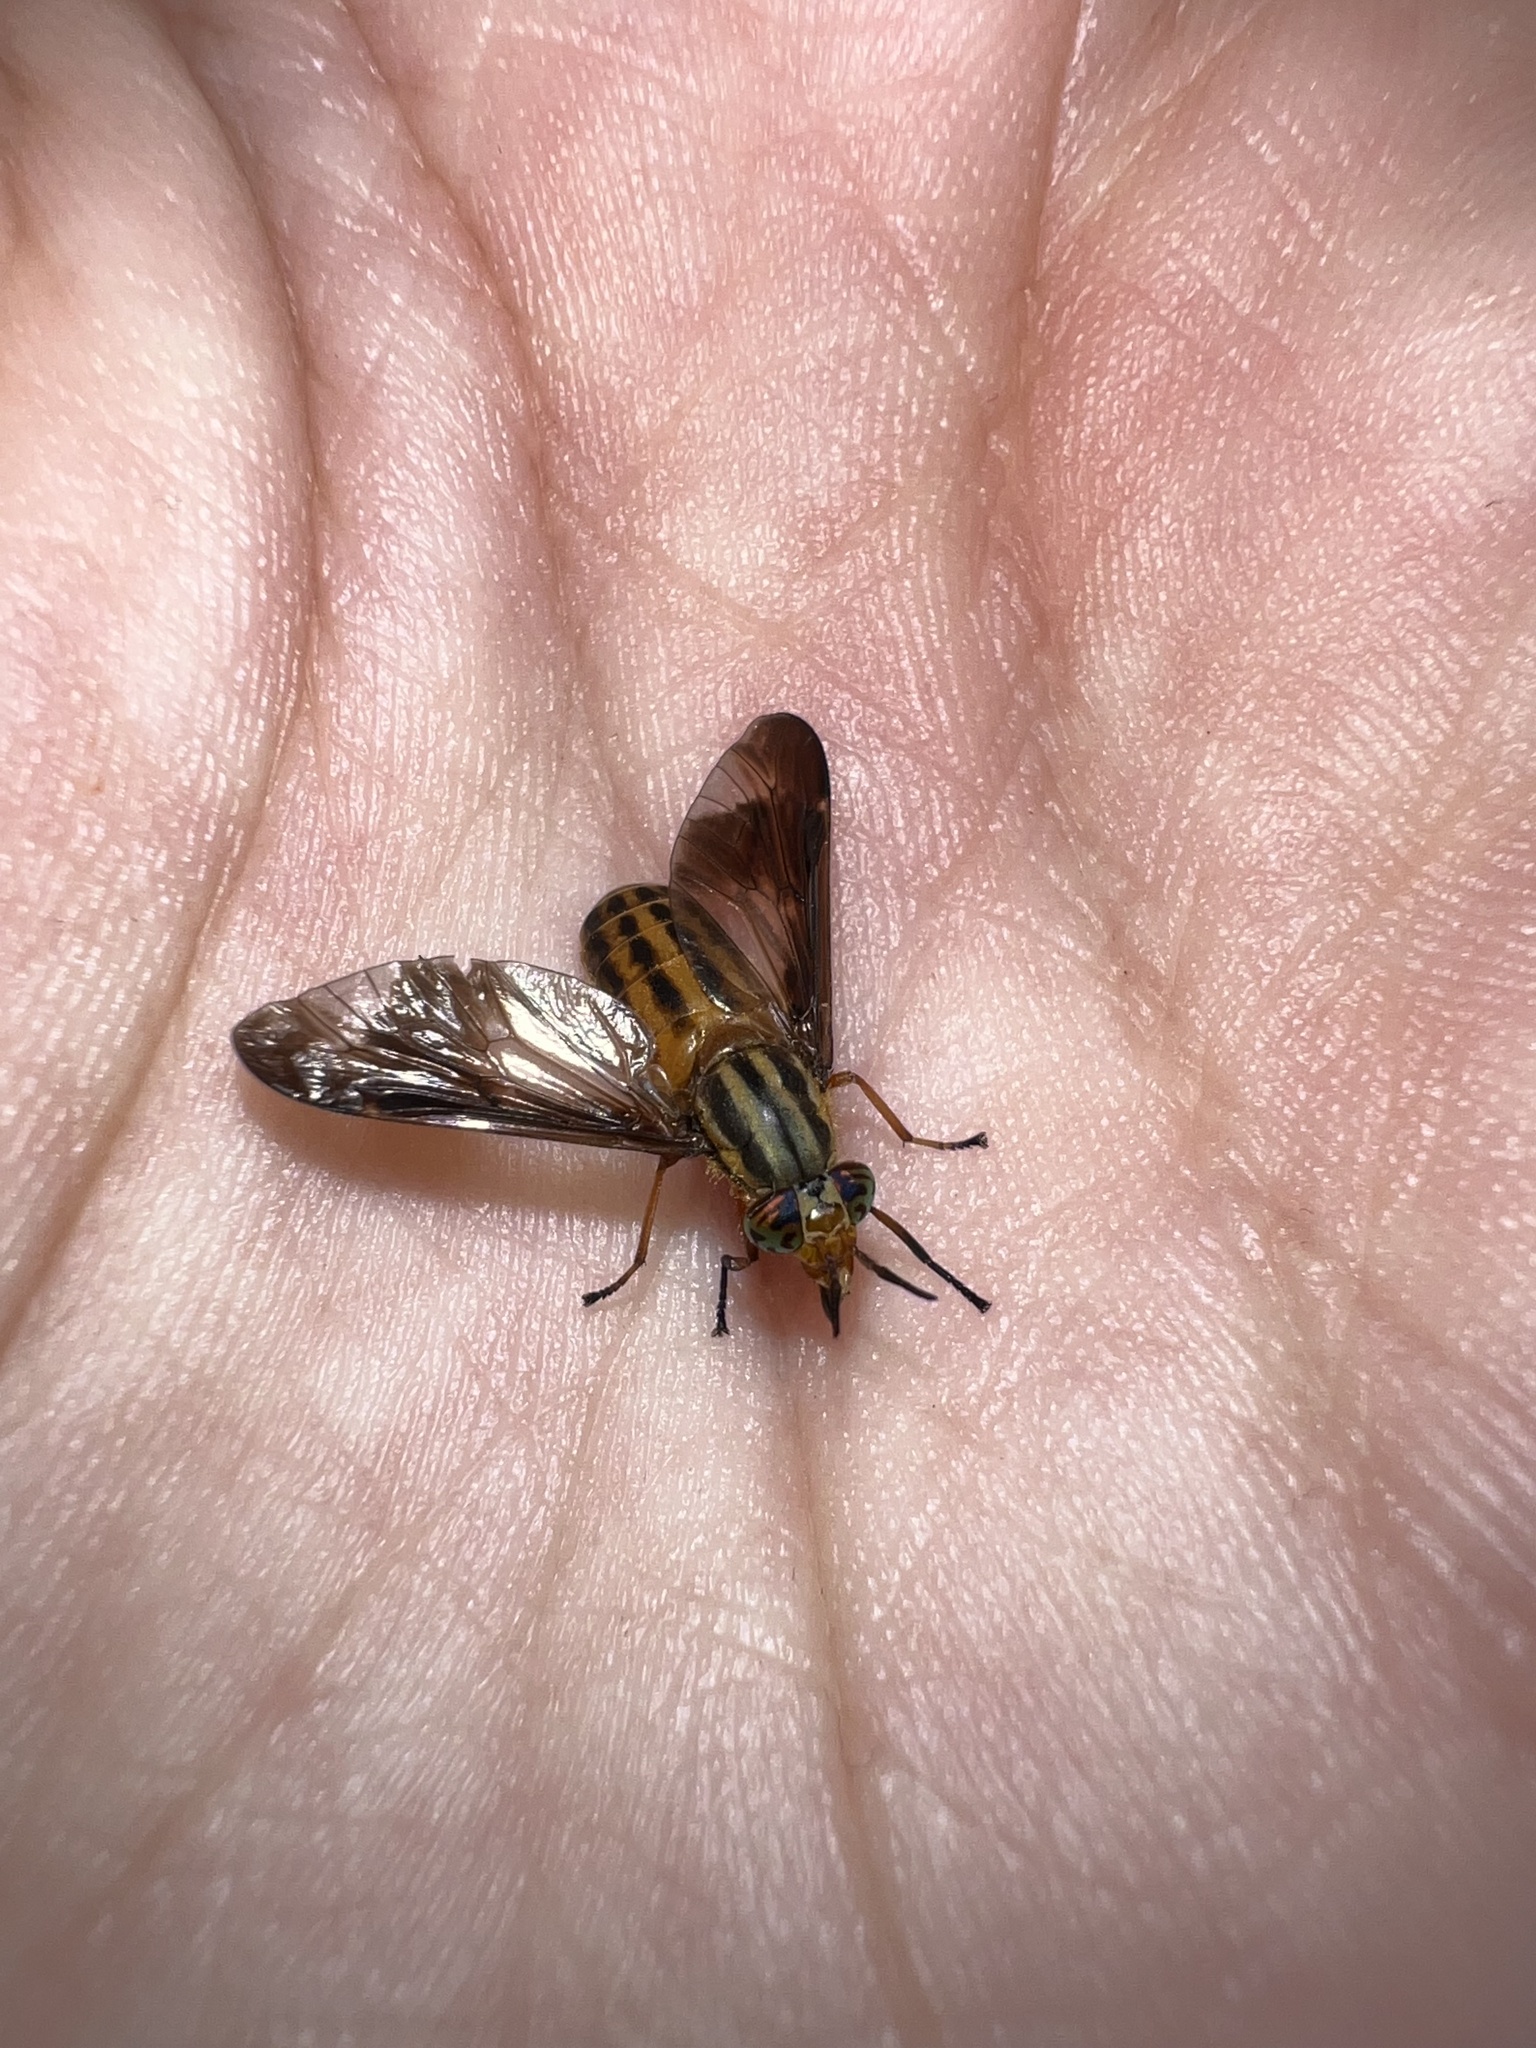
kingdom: Animalia
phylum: Arthropoda
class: Insecta
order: Diptera
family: Tabanidae
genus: Chrysops
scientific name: Chrysops vittatus
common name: Striped deer fly
